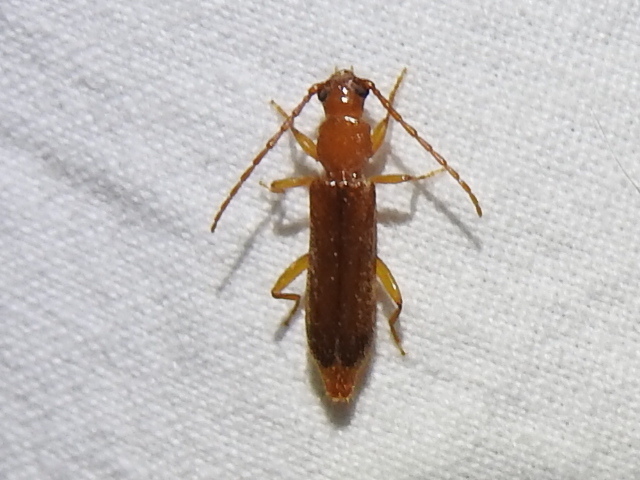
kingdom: Animalia
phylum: Arthropoda
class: Insecta
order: Coleoptera
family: Cerambycidae
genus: Smodicum
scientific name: Smodicum cucujiforme
